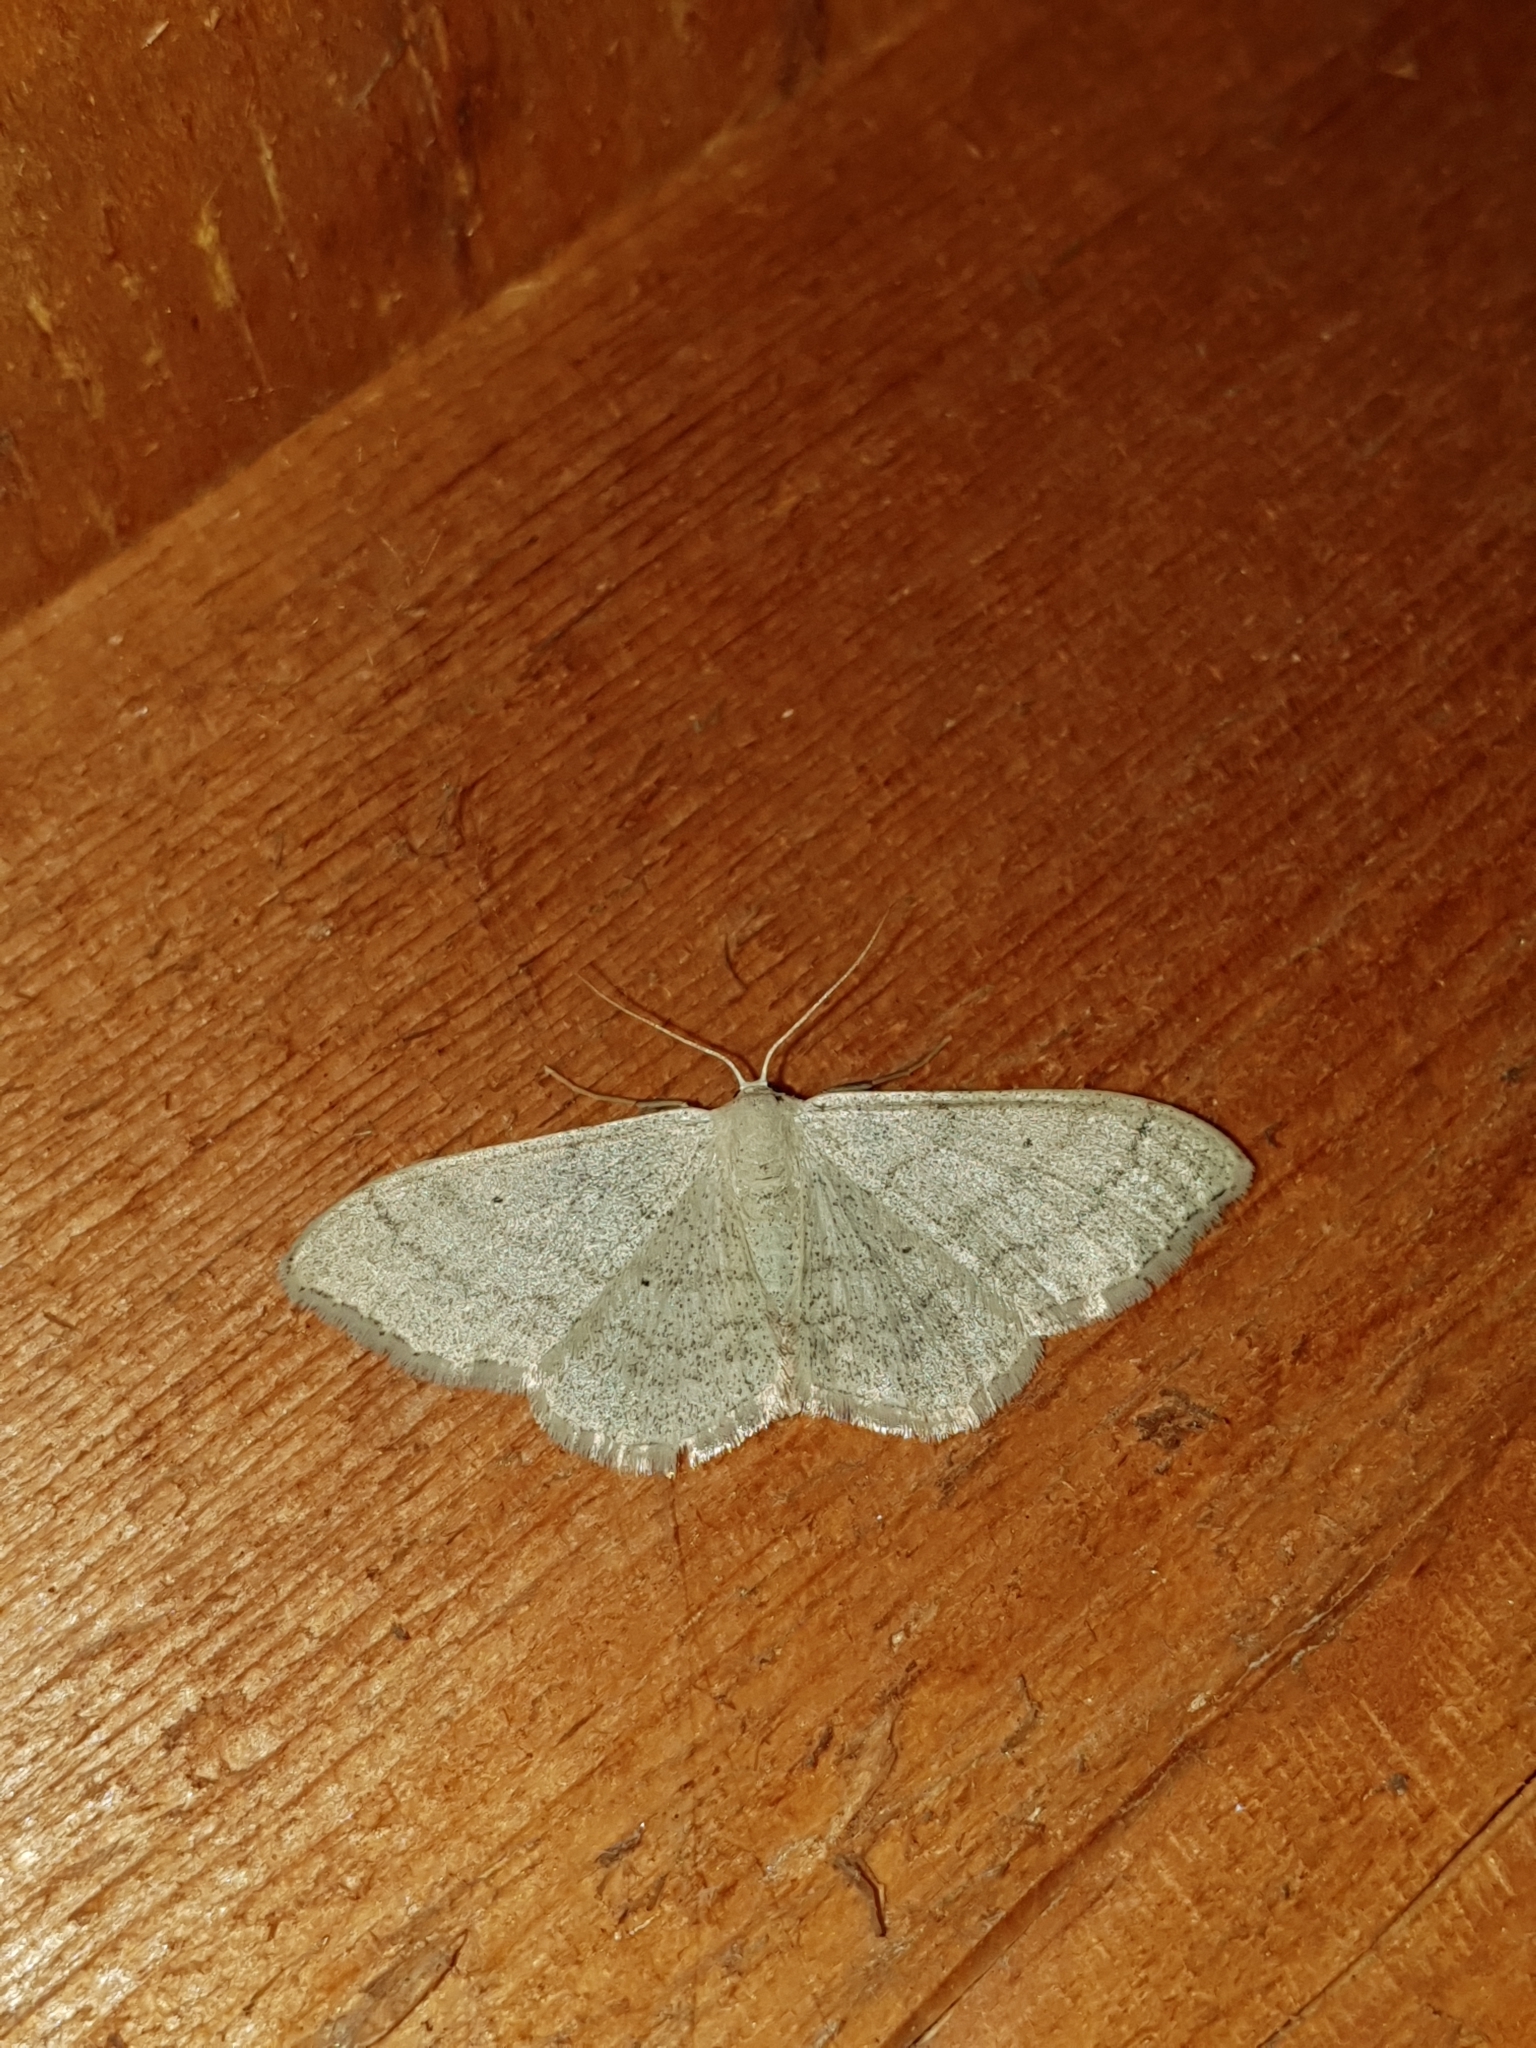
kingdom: Animalia
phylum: Arthropoda
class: Insecta
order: Lepidoptera
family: Geometridae
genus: Idaea
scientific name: Idaea maritimaria
